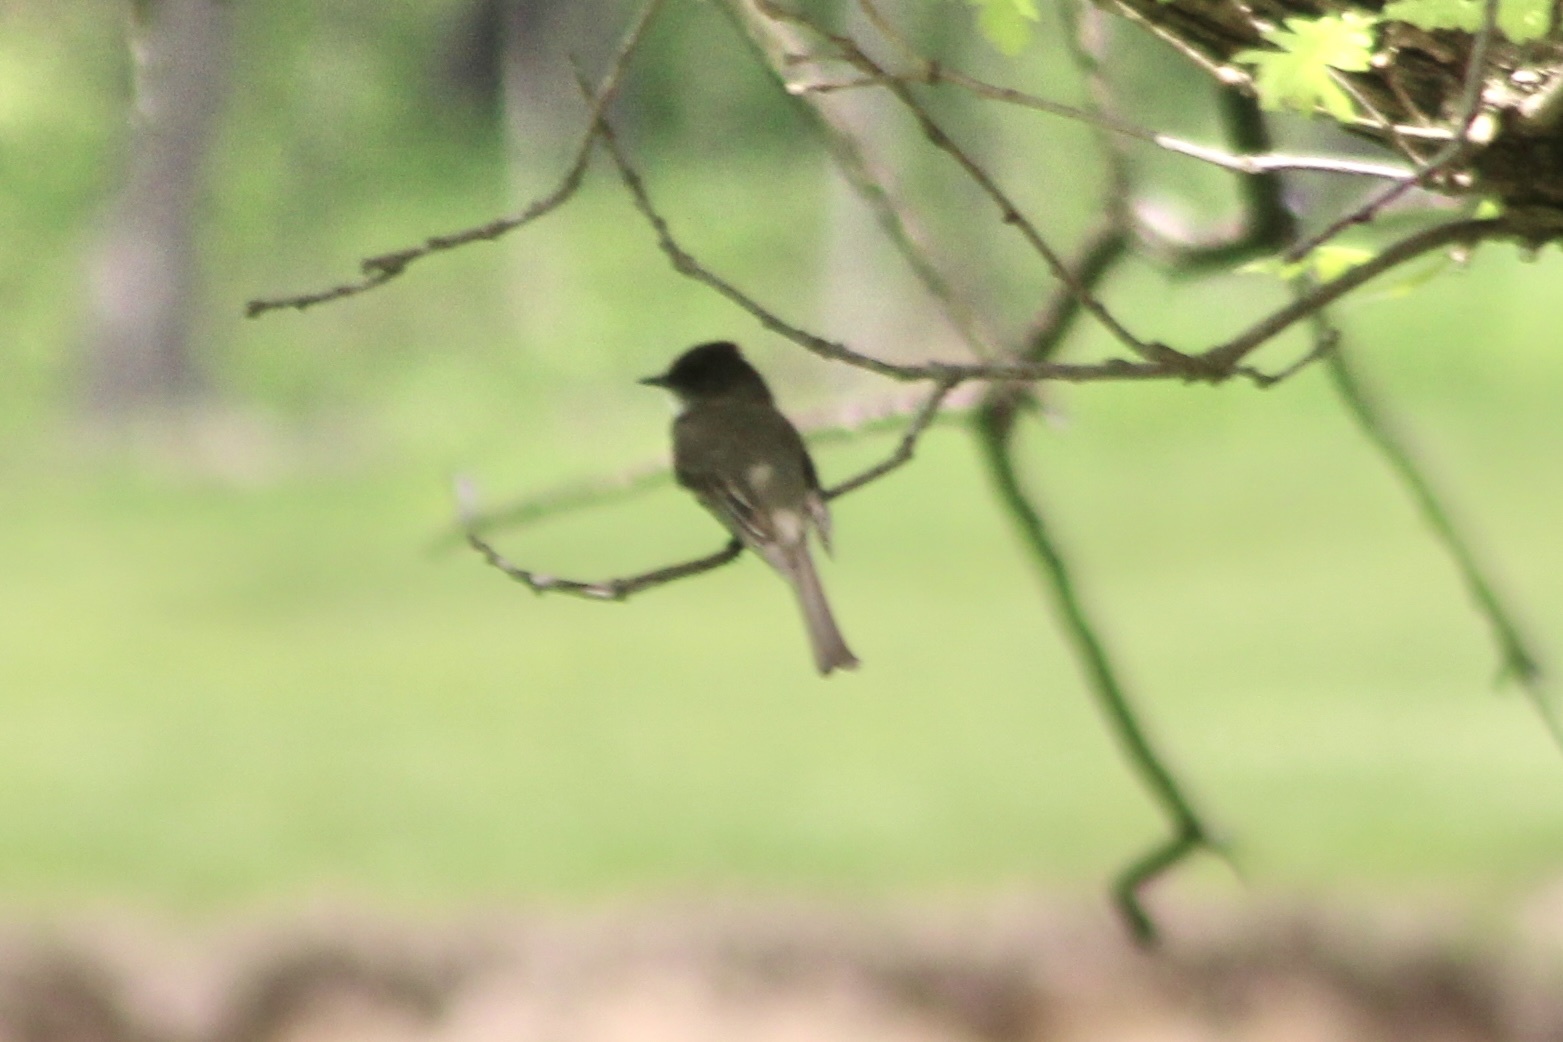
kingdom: Animalia
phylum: Chordata
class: Aves
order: Passeriformes
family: Tyrannidae
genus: Sayornis
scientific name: Sayornis phoebe
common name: Eastern phoebe
